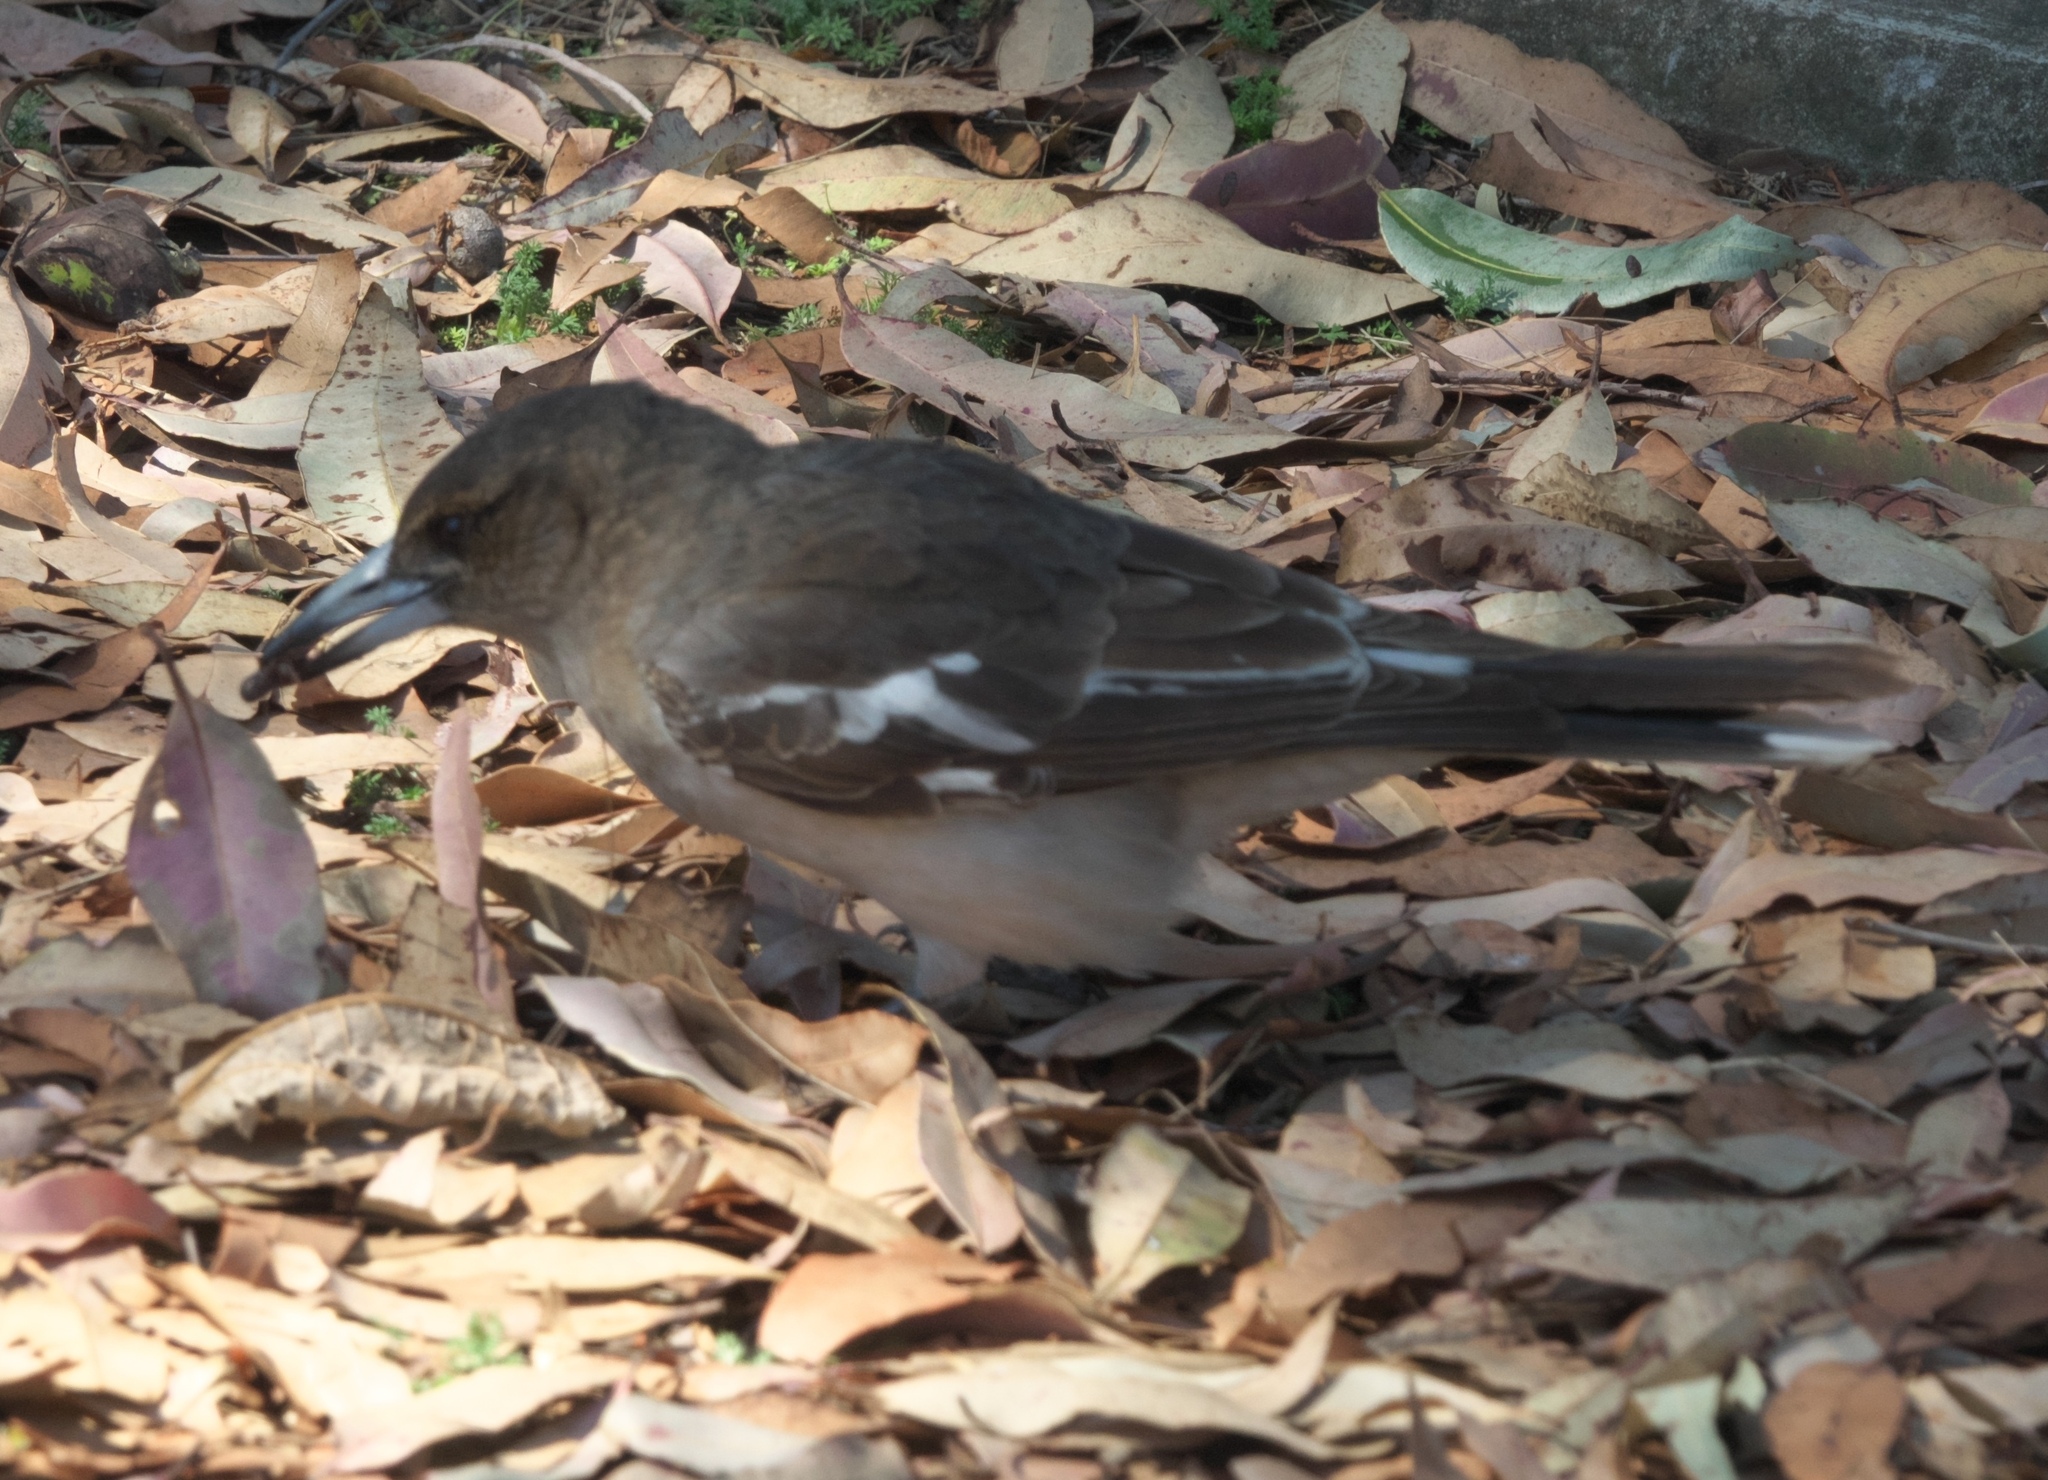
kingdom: Animalia
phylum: Chordata
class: Aves
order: Passeriformes
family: Cracticidae
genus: Cracticus
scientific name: Cracticus nigrogularis
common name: Pied butcherbird
